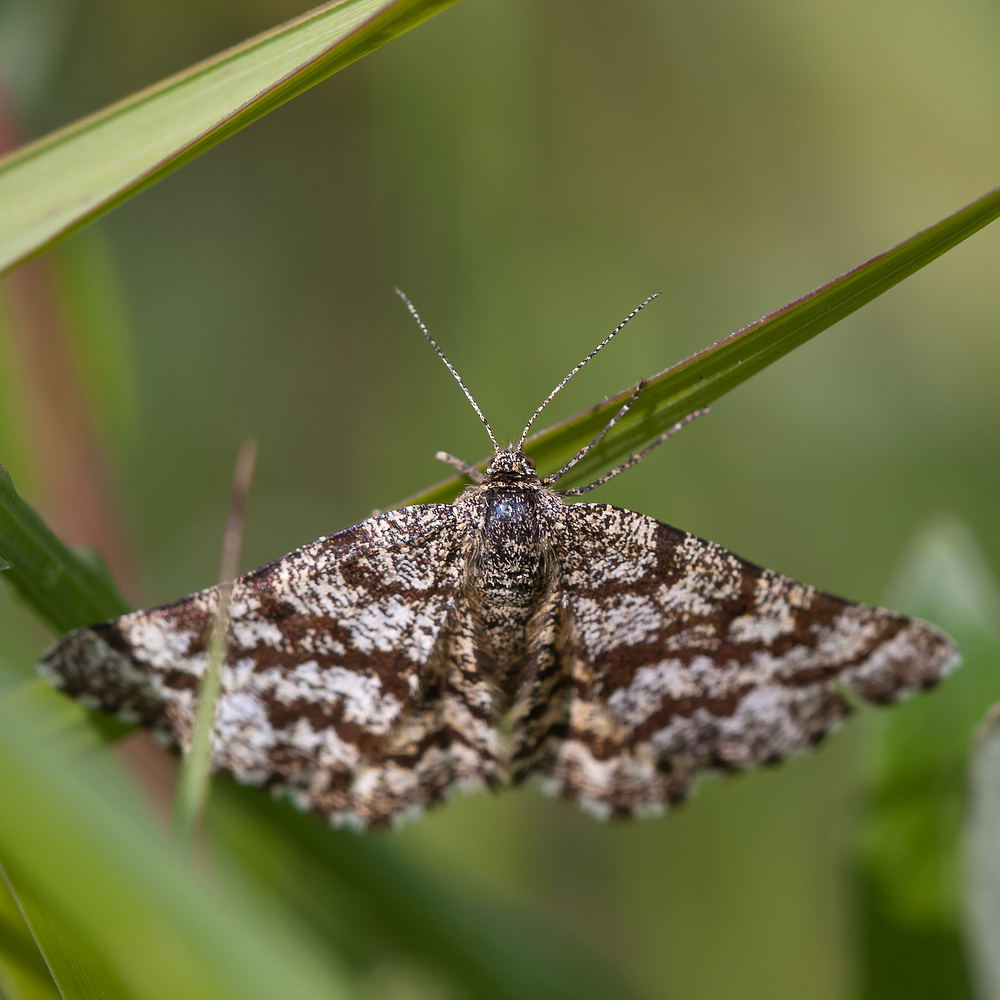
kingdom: Animalia
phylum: Arthropoda
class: Insecta
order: Lepidoptera
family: Geometridae
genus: Ematurga
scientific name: Ematurga atomaria
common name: Common heath
